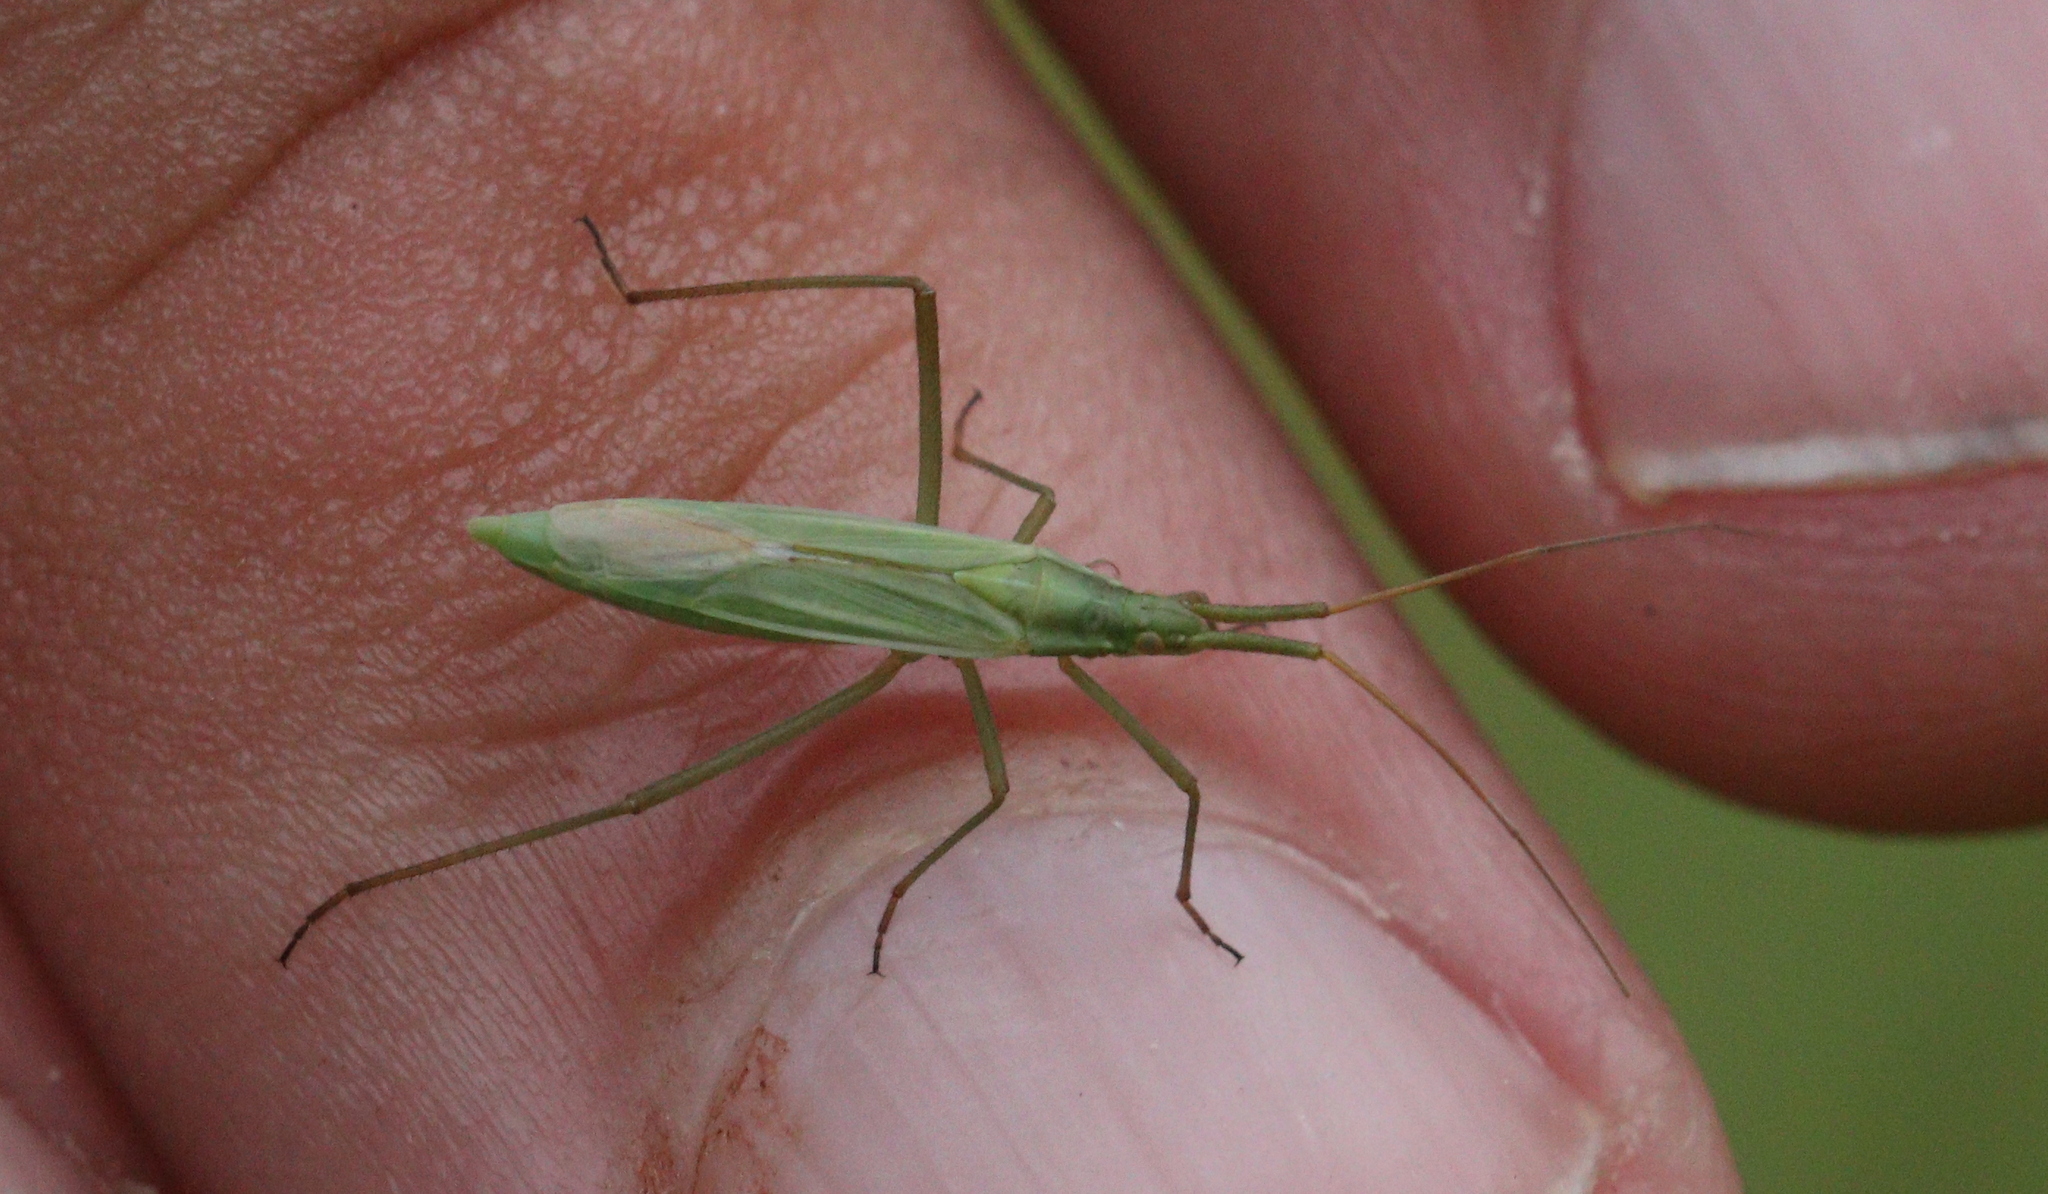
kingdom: Animalia
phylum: Arthropoda
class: Insecta
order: Hemiptera
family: Miridae
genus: Megaloceroea
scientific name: Megaloceroea recticornis
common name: Plant bug
